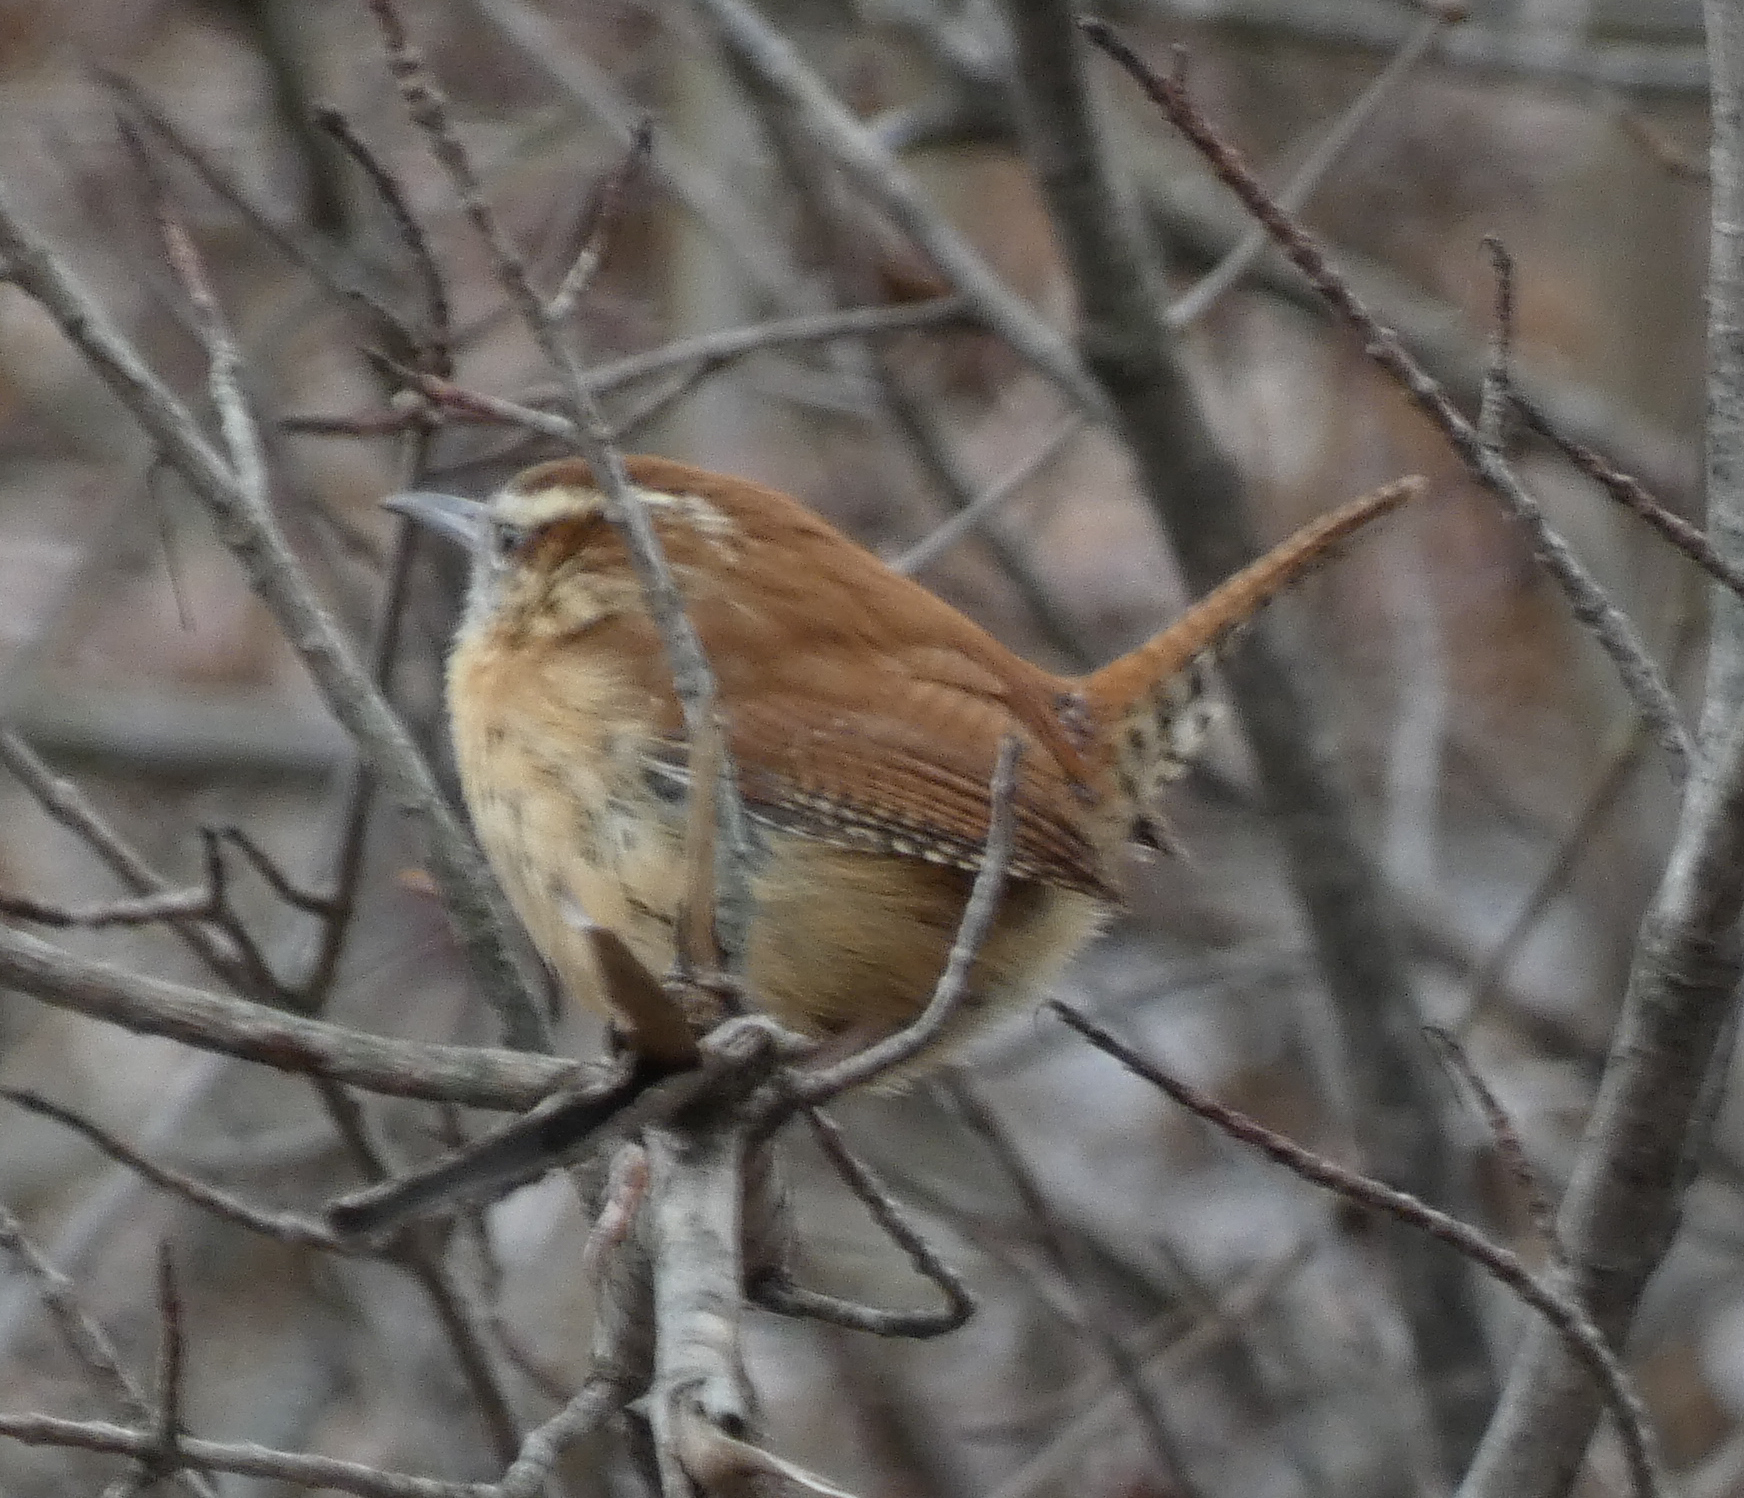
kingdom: Animalia
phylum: Chordata
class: Aves
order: Passeriformes
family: Troglodytidae
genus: Thryothorus
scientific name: Thryothorus ludovicianus
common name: Carolina wren
